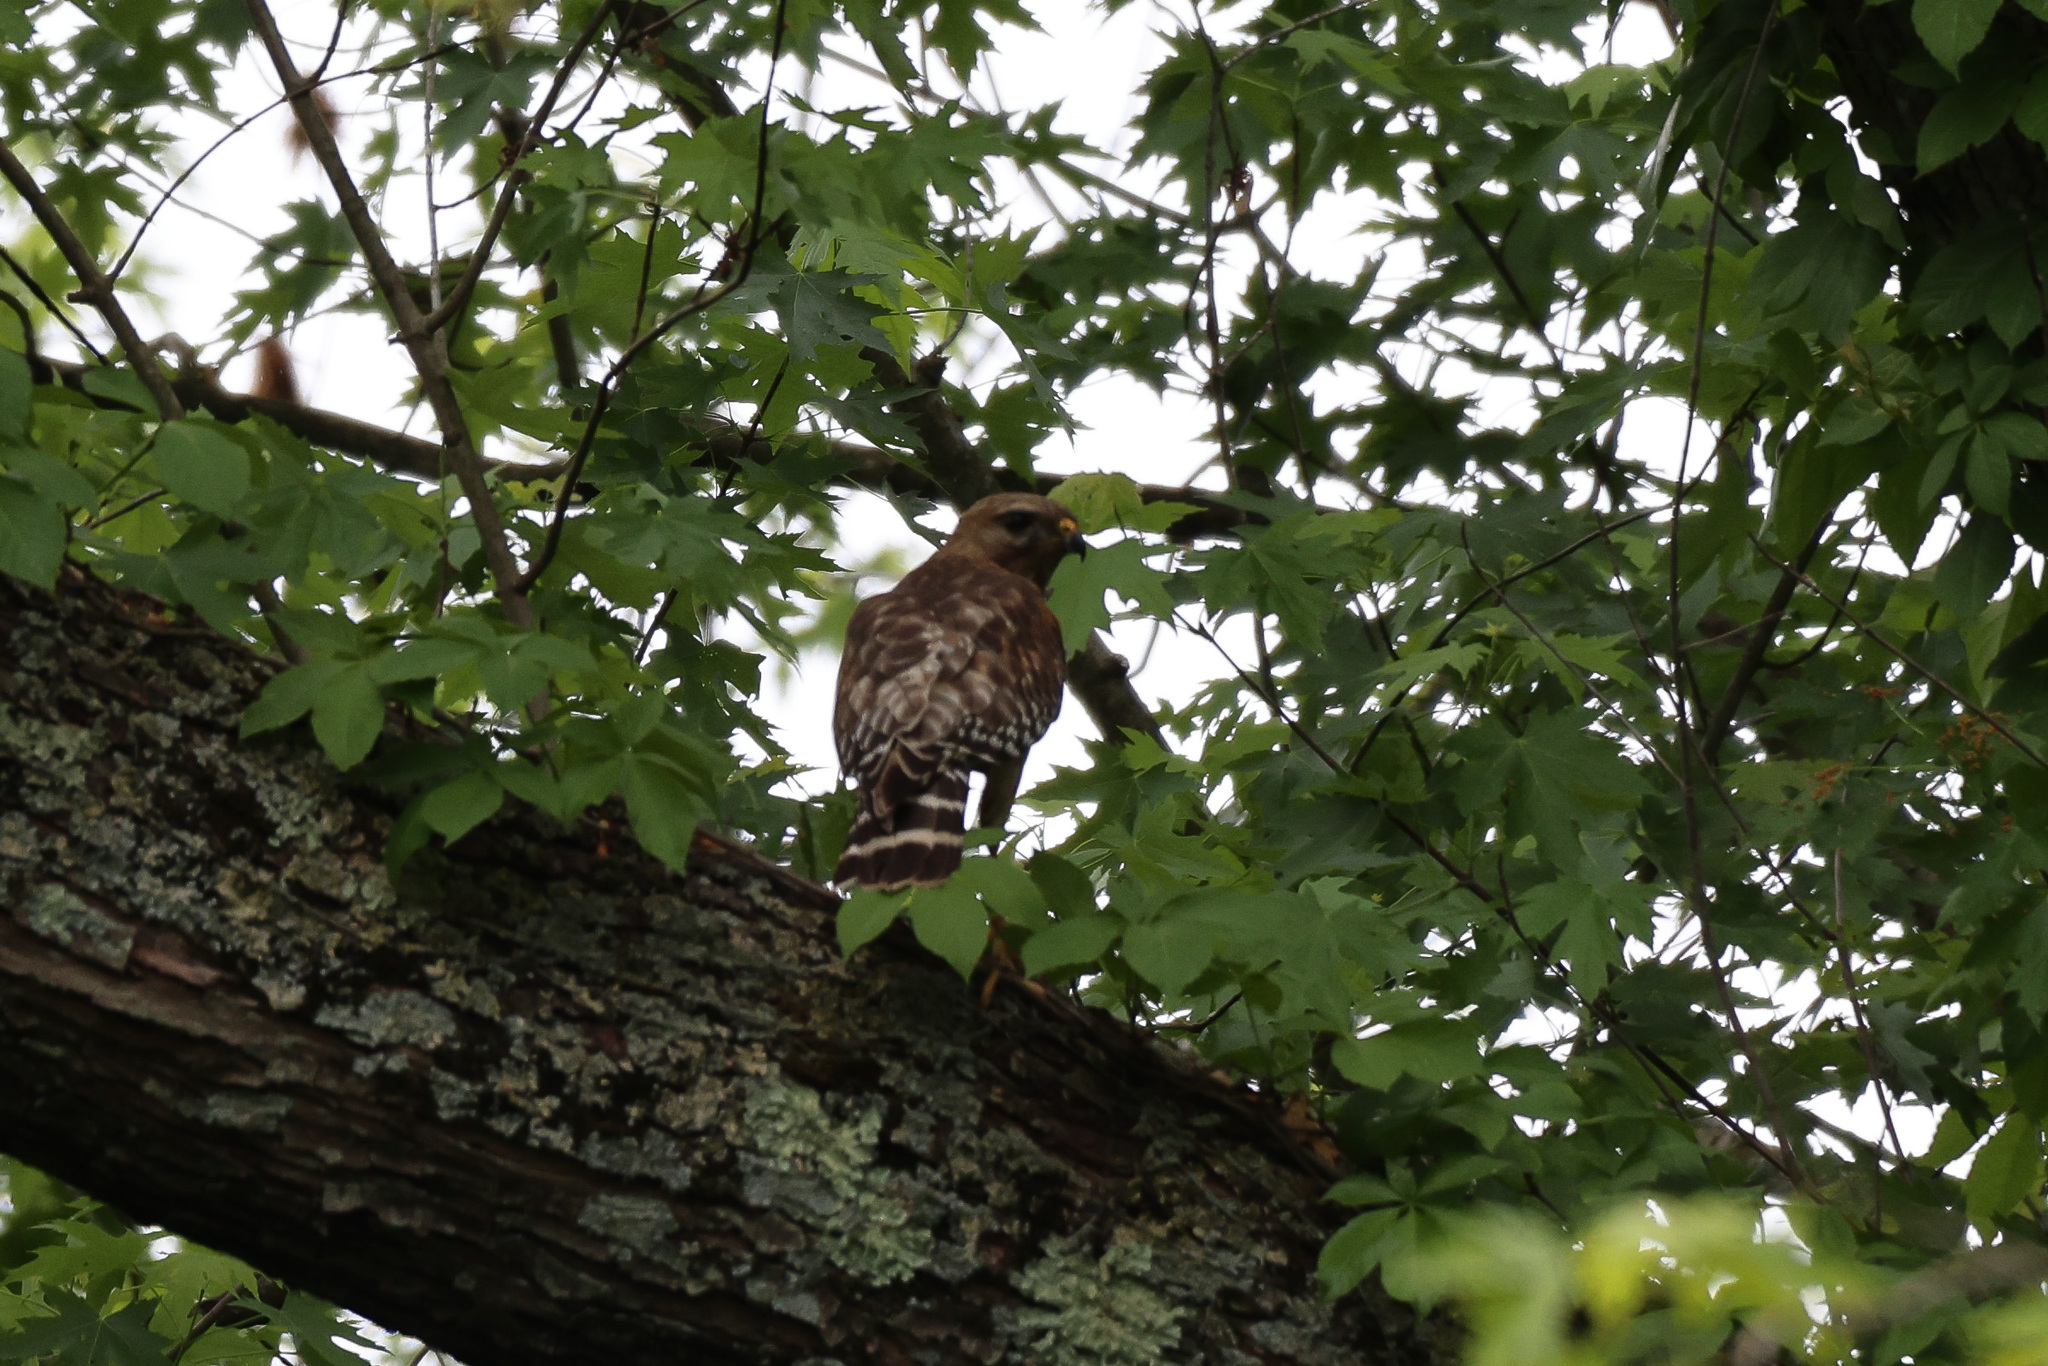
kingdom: Animalia
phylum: Chordata
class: Aves
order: Accipitriformes
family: Accipitridae
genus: Buteo
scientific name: Buteo lineatus
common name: Red-shouldered hawk
